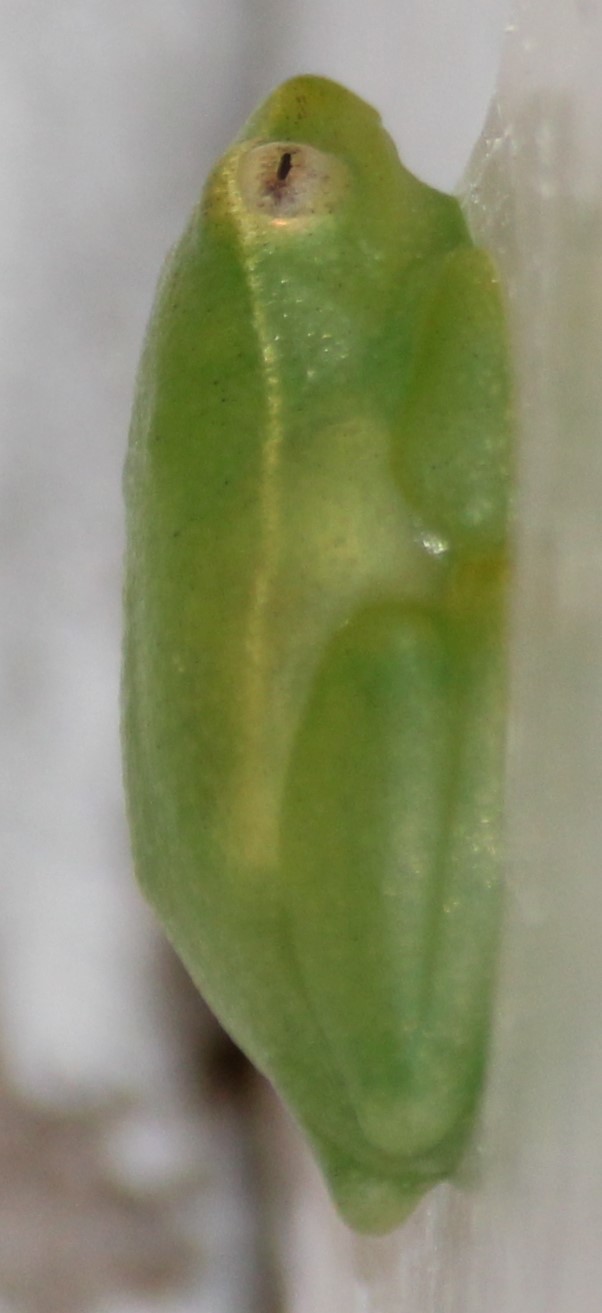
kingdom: Animalia
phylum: Chordata
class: Amphibia
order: Anura
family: Hyperoliidae
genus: Hyperolius
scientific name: Hyperolius poweri
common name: Power's reed frog
